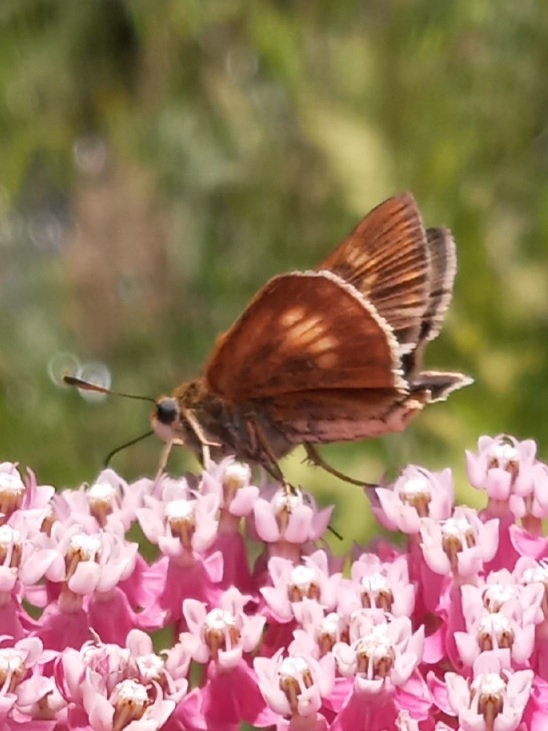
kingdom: Animalia
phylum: Arthropoda
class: Insecta
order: Lepidoptera
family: Hesperiidae
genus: Euphyes
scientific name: Euphyes conspicua
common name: Black dash
